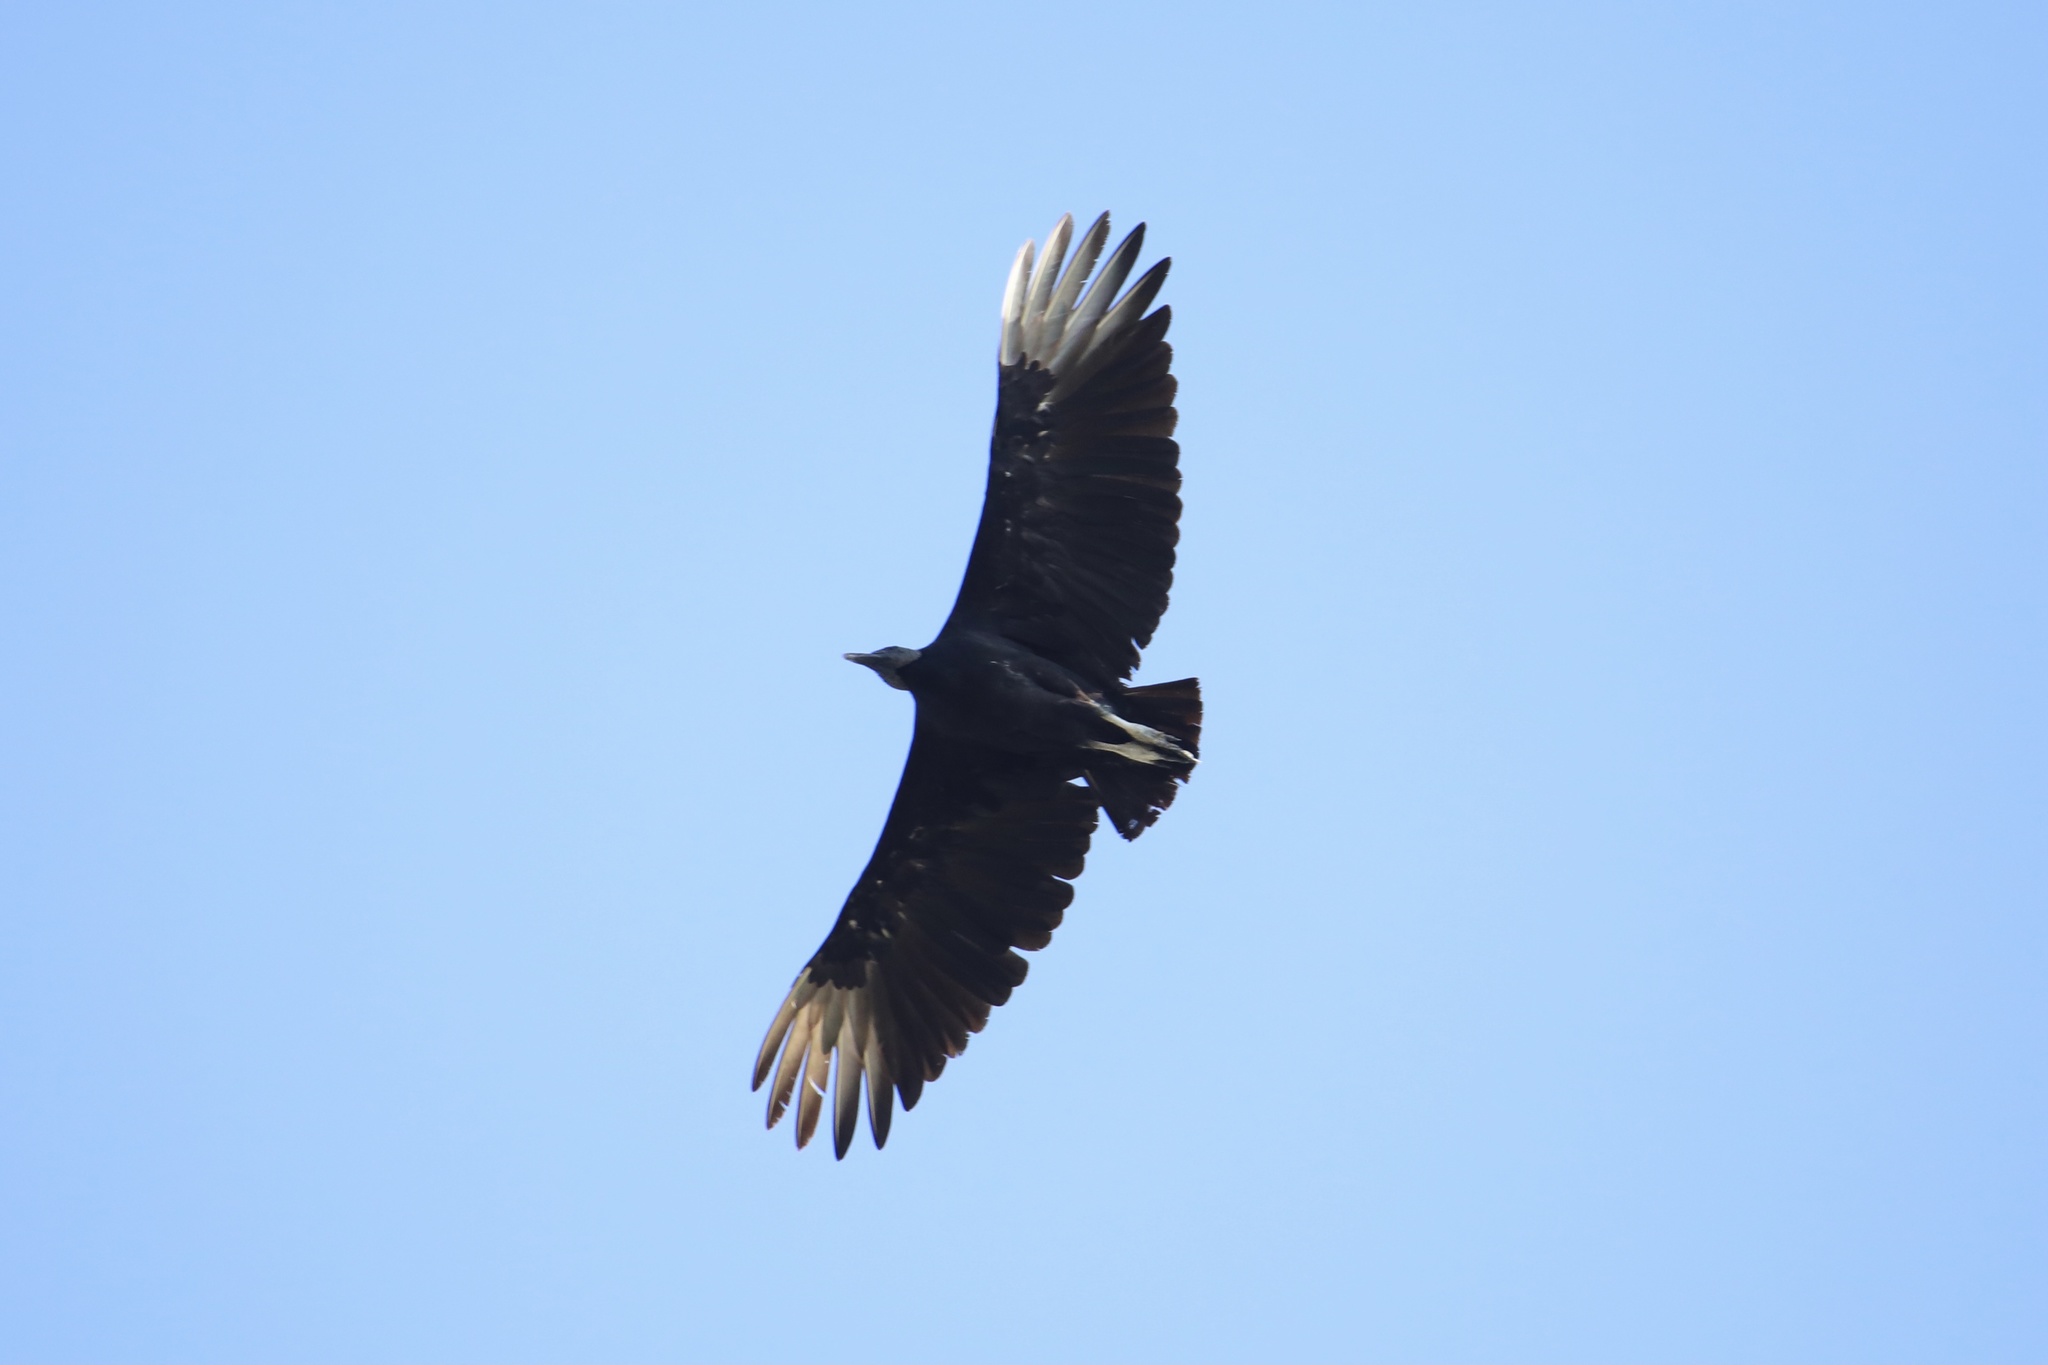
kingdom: Animalia
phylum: Chordata
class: Aves
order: Accipitriformes
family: Cathartidae
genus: Coragyps
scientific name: Coragyps atratus
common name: Black vulture
